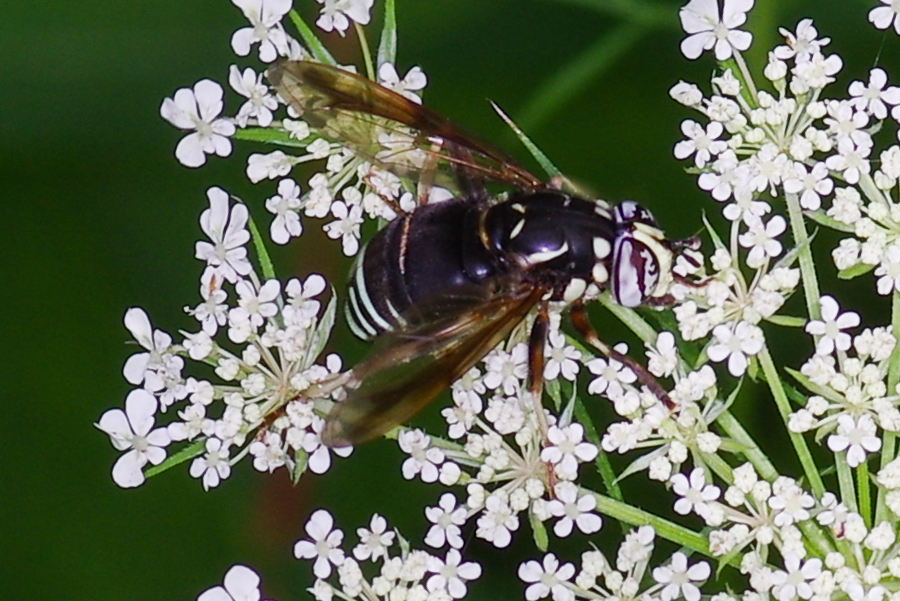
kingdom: Animalia
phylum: Arthropoda
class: Insecta
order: Diptera
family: Syrphidae
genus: Spilomyia
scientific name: Spilomyia fusca
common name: Bald-faced hornet fly
